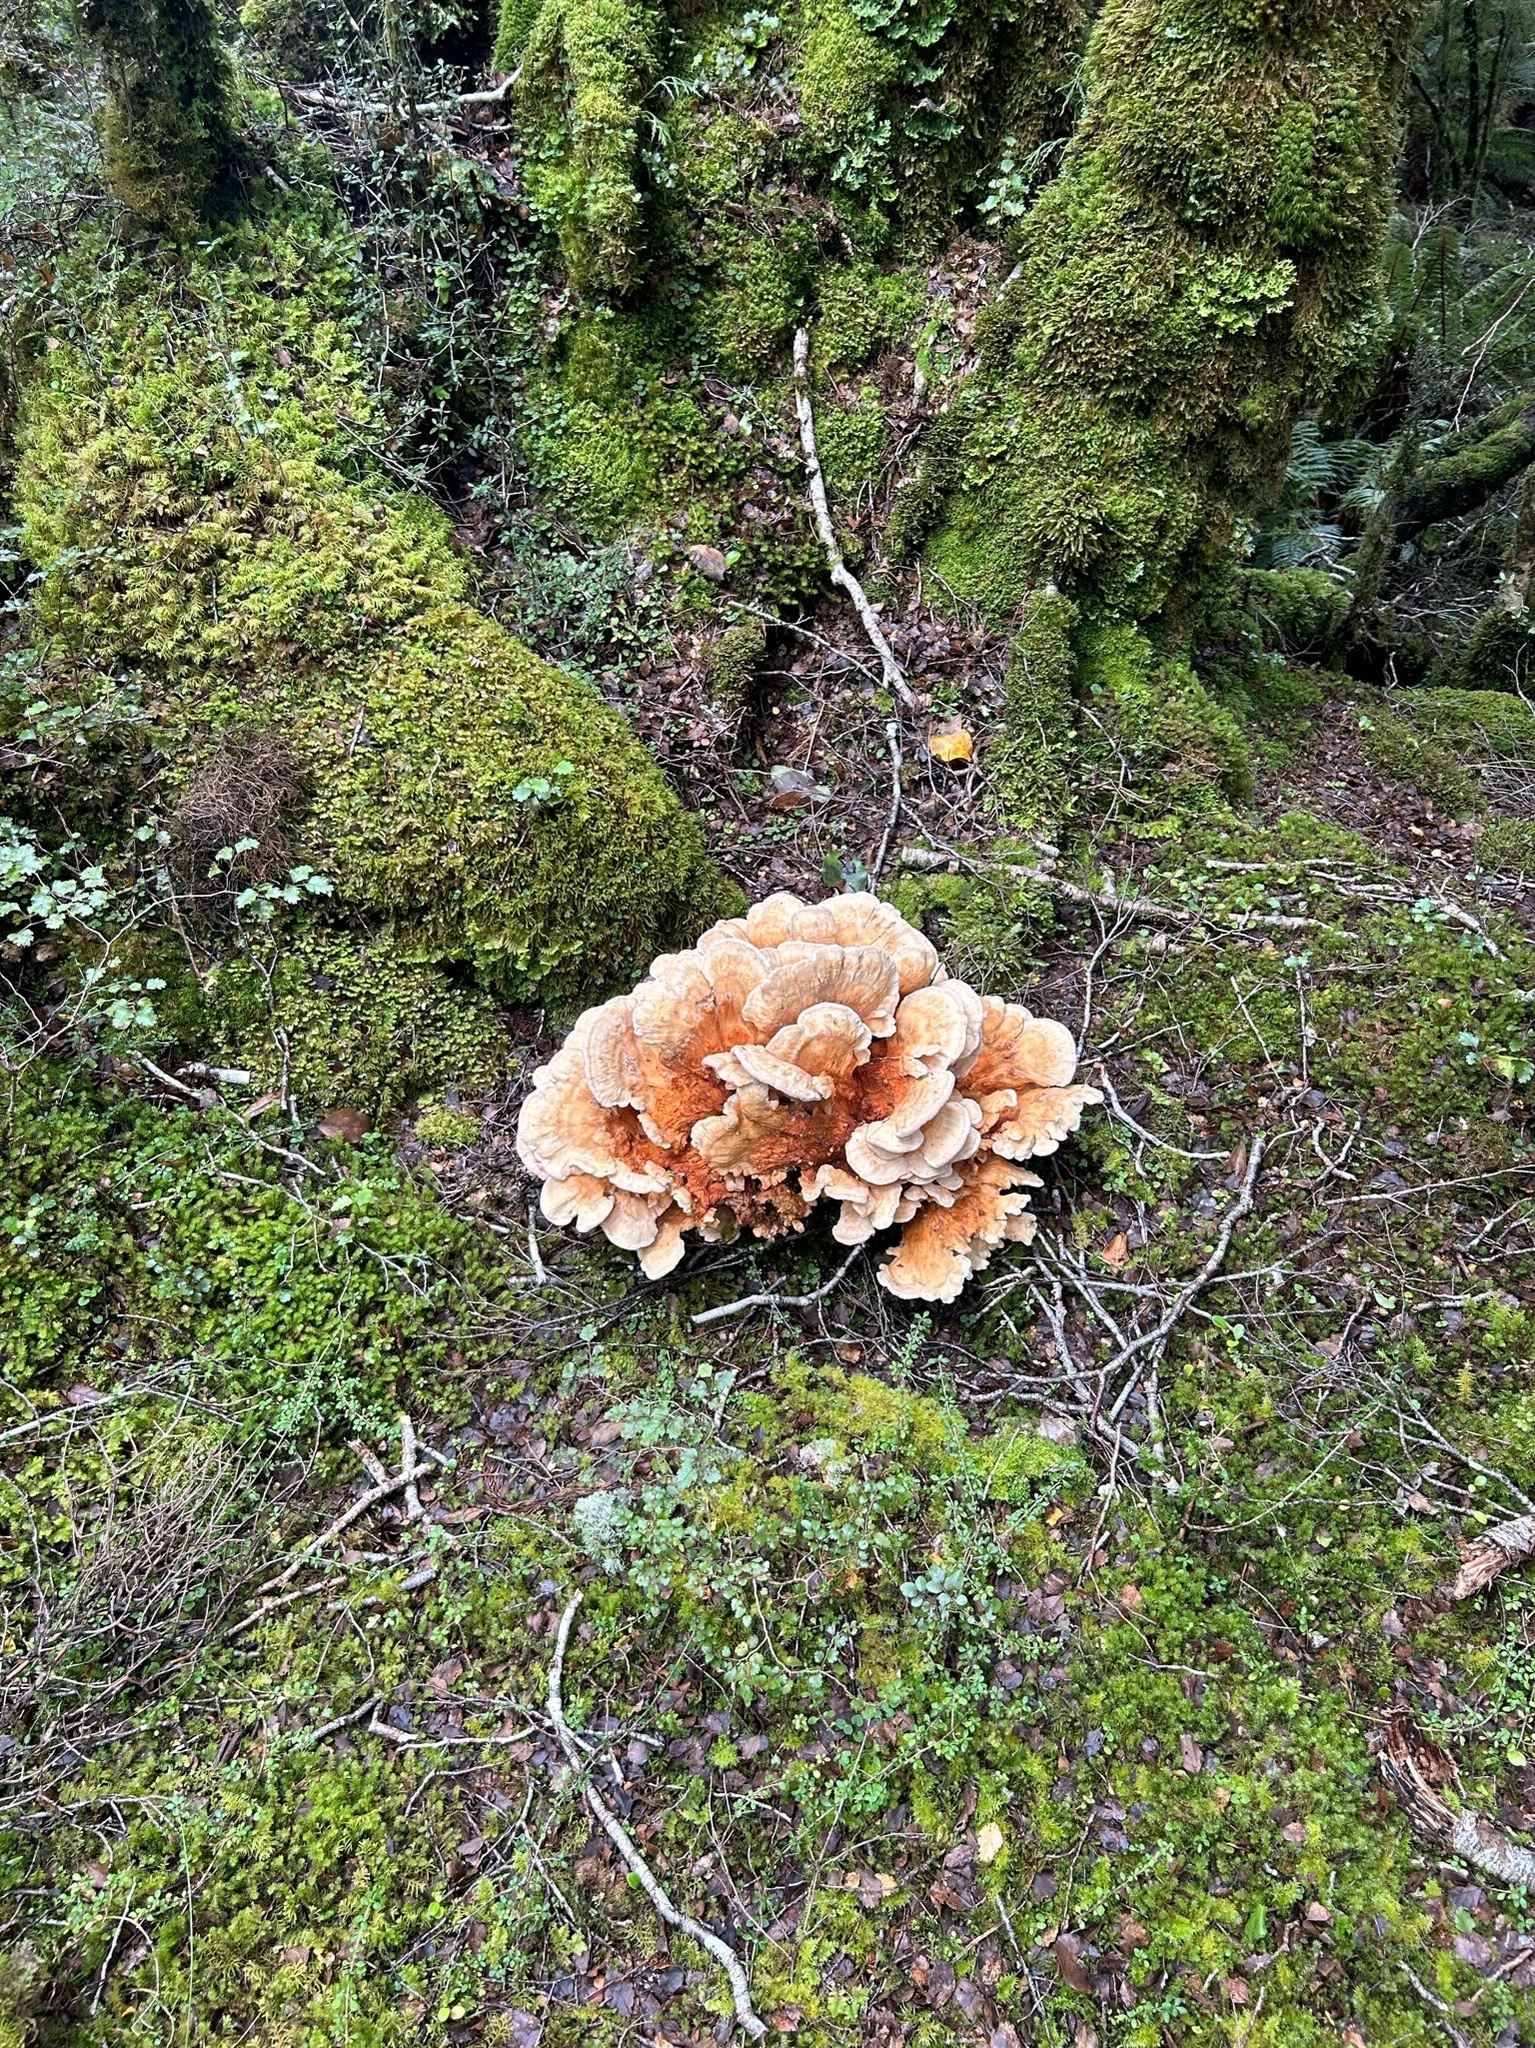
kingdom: Fungi
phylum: Basidiomycota
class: Agaricomycetes
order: Russulales
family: Bondarzewiaceae
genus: Bondarzewia
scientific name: Bondarzewia kirkii
